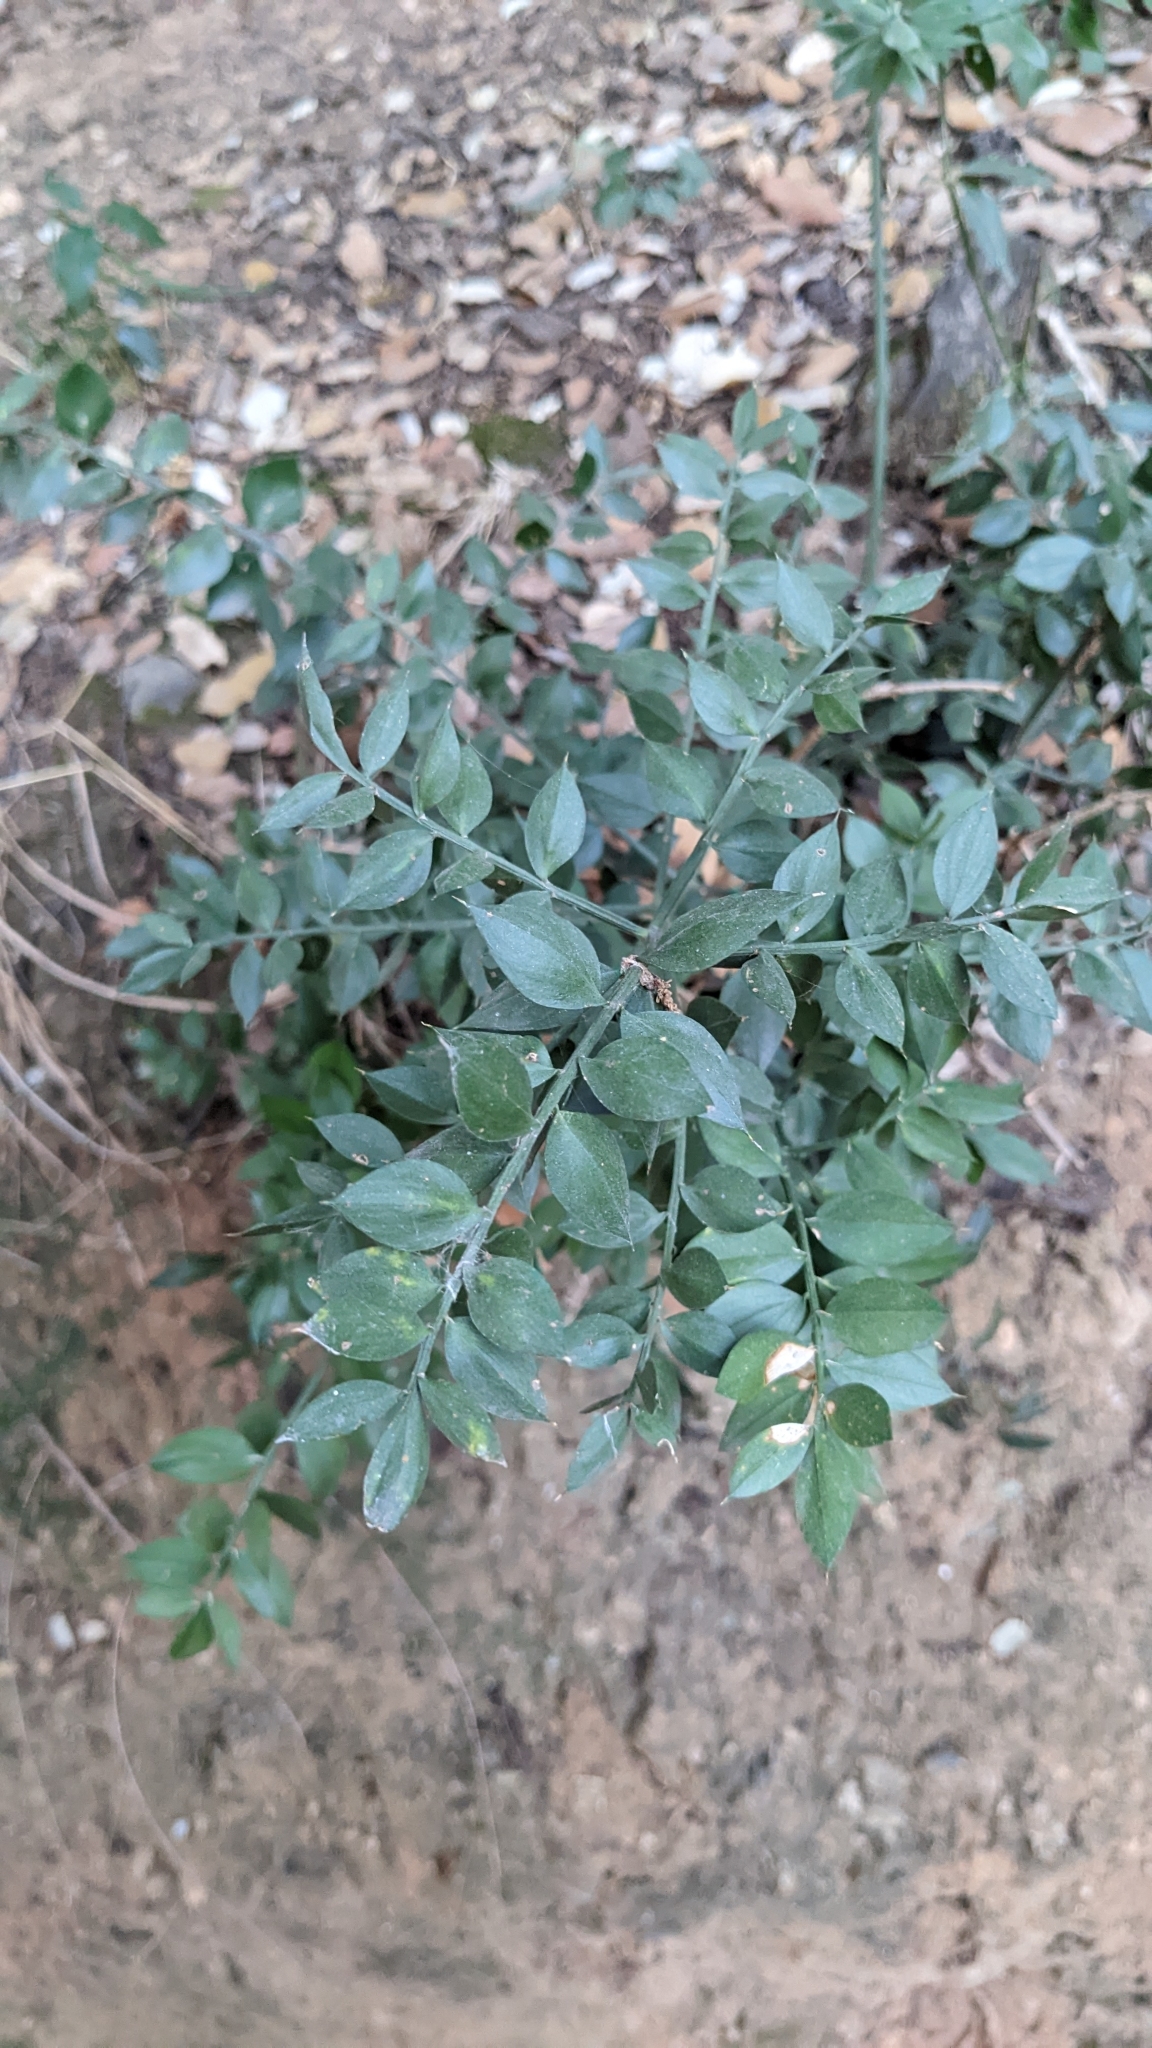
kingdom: Plantae
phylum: Tracheophyta
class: Liliopsida
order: Asparagales
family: Asparagaceae
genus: Ruscus
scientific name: Ruscus aculeatus
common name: Butcher's-broom
